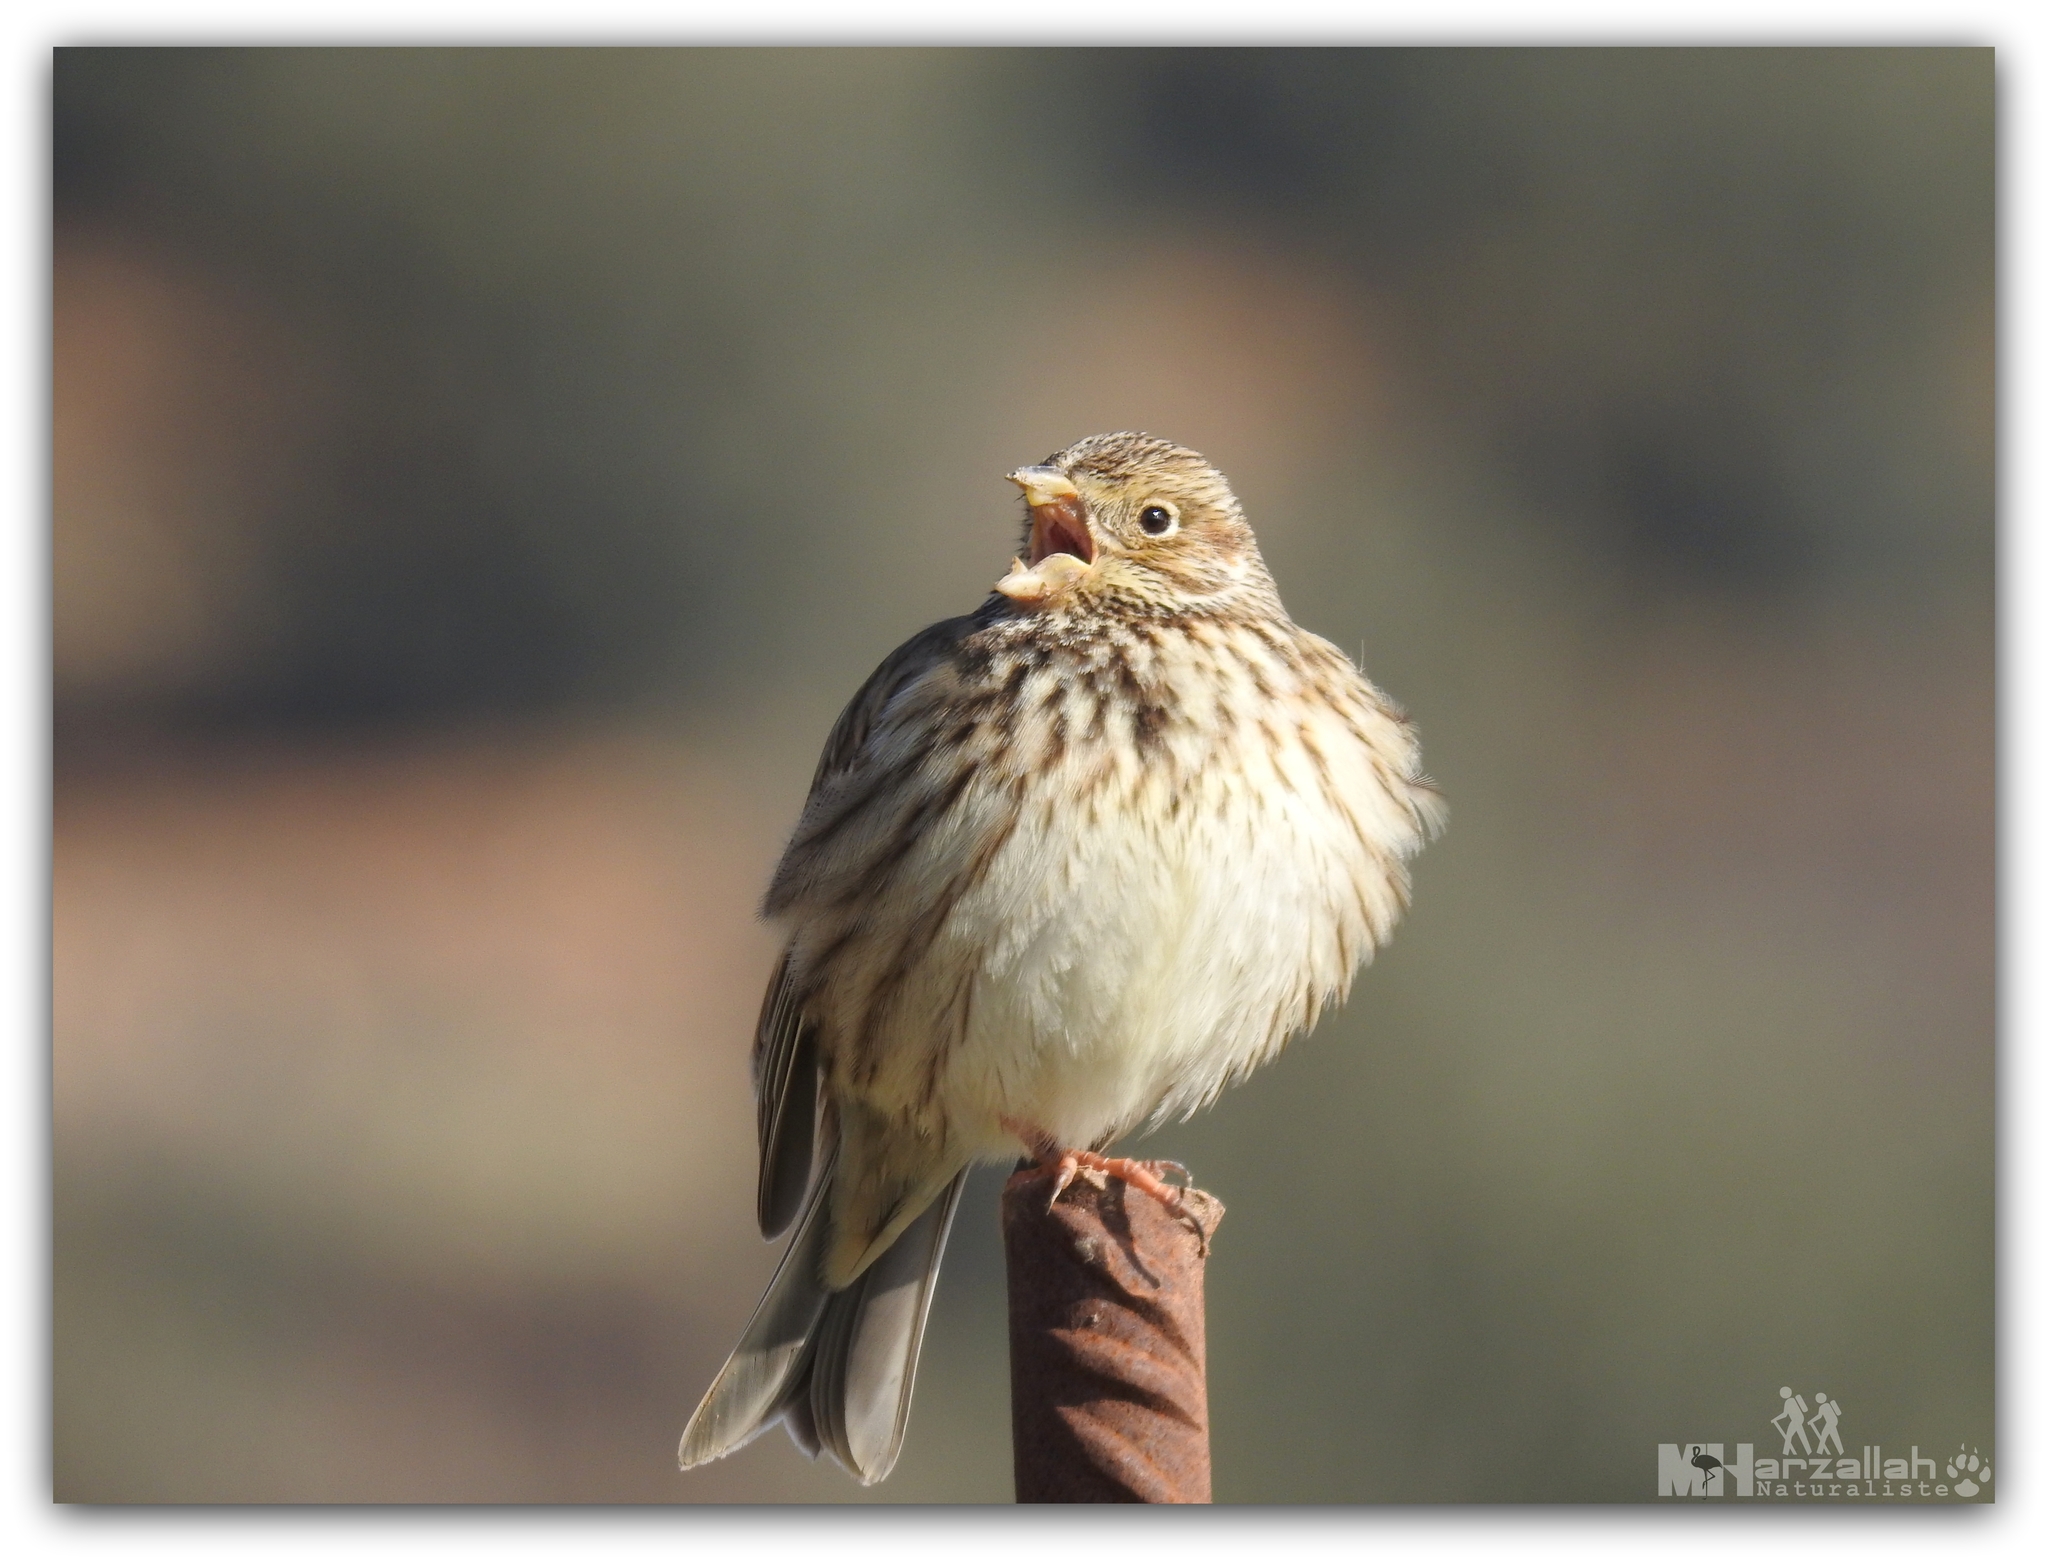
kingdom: Animalia
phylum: Chordata
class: Aves
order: Passeriformes
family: Emberizidae
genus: Emberiza
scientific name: Emberiza calandra
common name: Corn bunting
